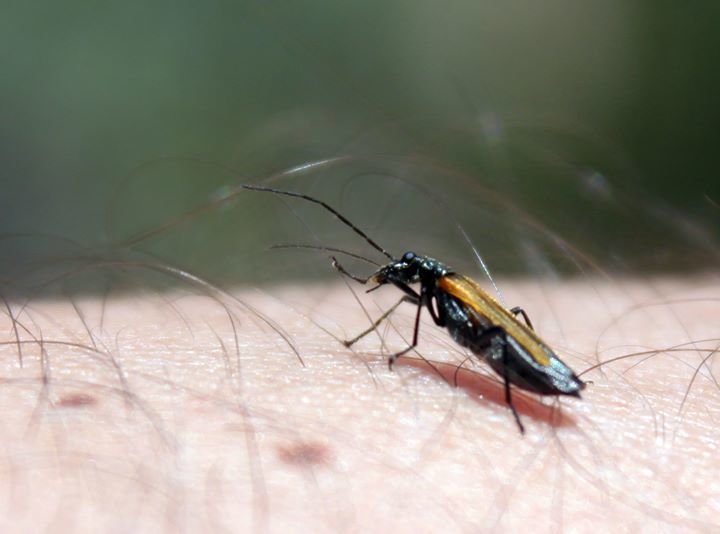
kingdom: Animalia
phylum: Arthropoda
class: Insecta
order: Coleoptera
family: Oedemeridae
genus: Oedemera
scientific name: Oedemera femorata
